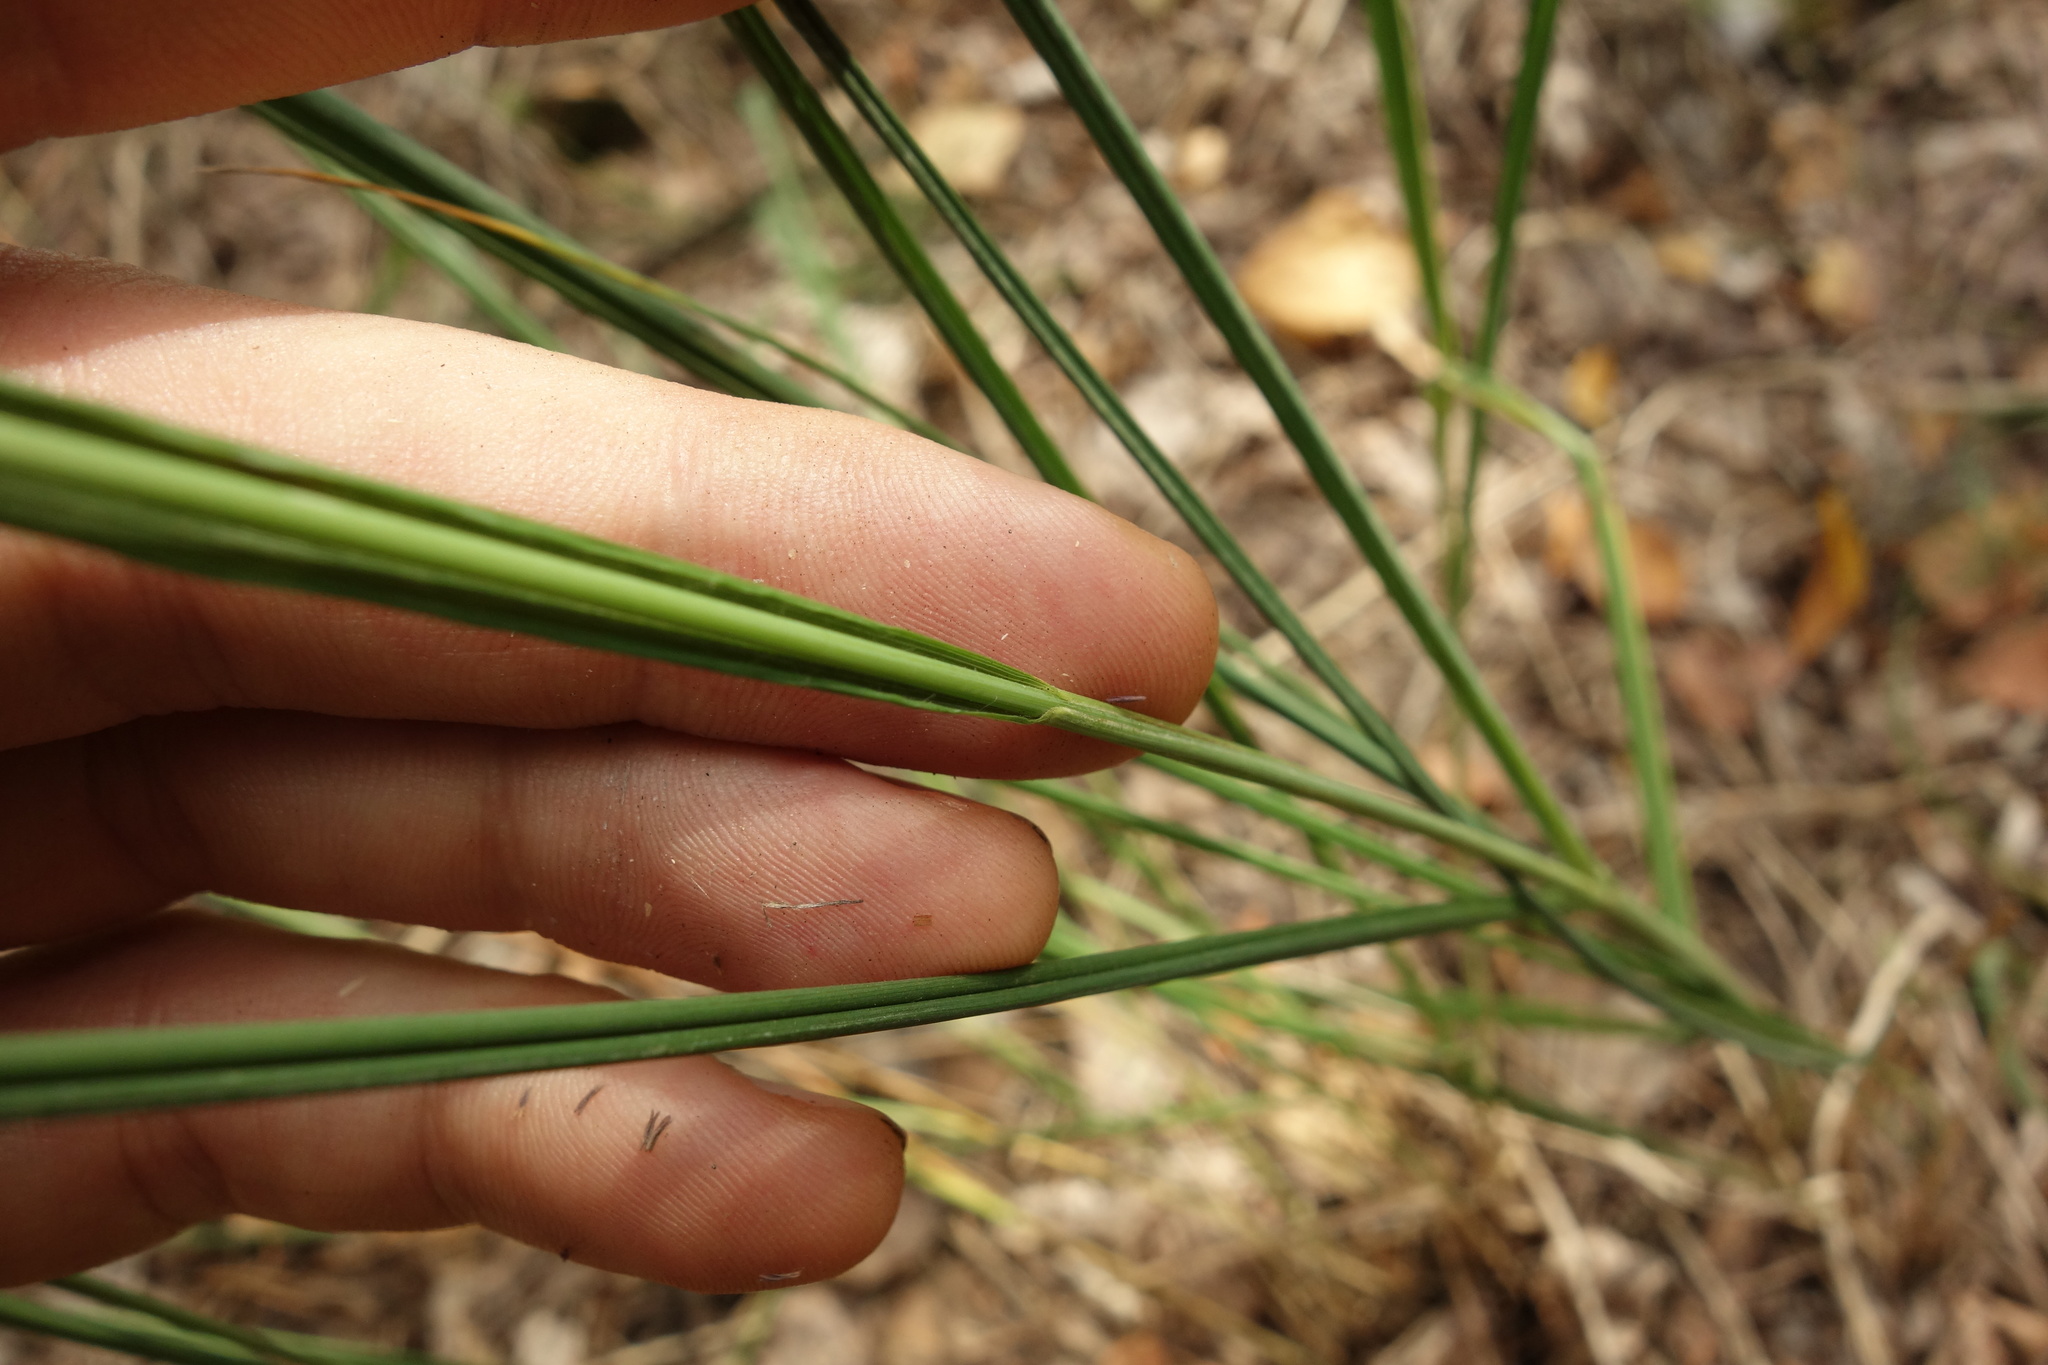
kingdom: Plantae
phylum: Tracheophyta
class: Liliopsida
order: Poales
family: Poaceae
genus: Molinia
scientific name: Molinia caerulea
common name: Purple moor-grass
